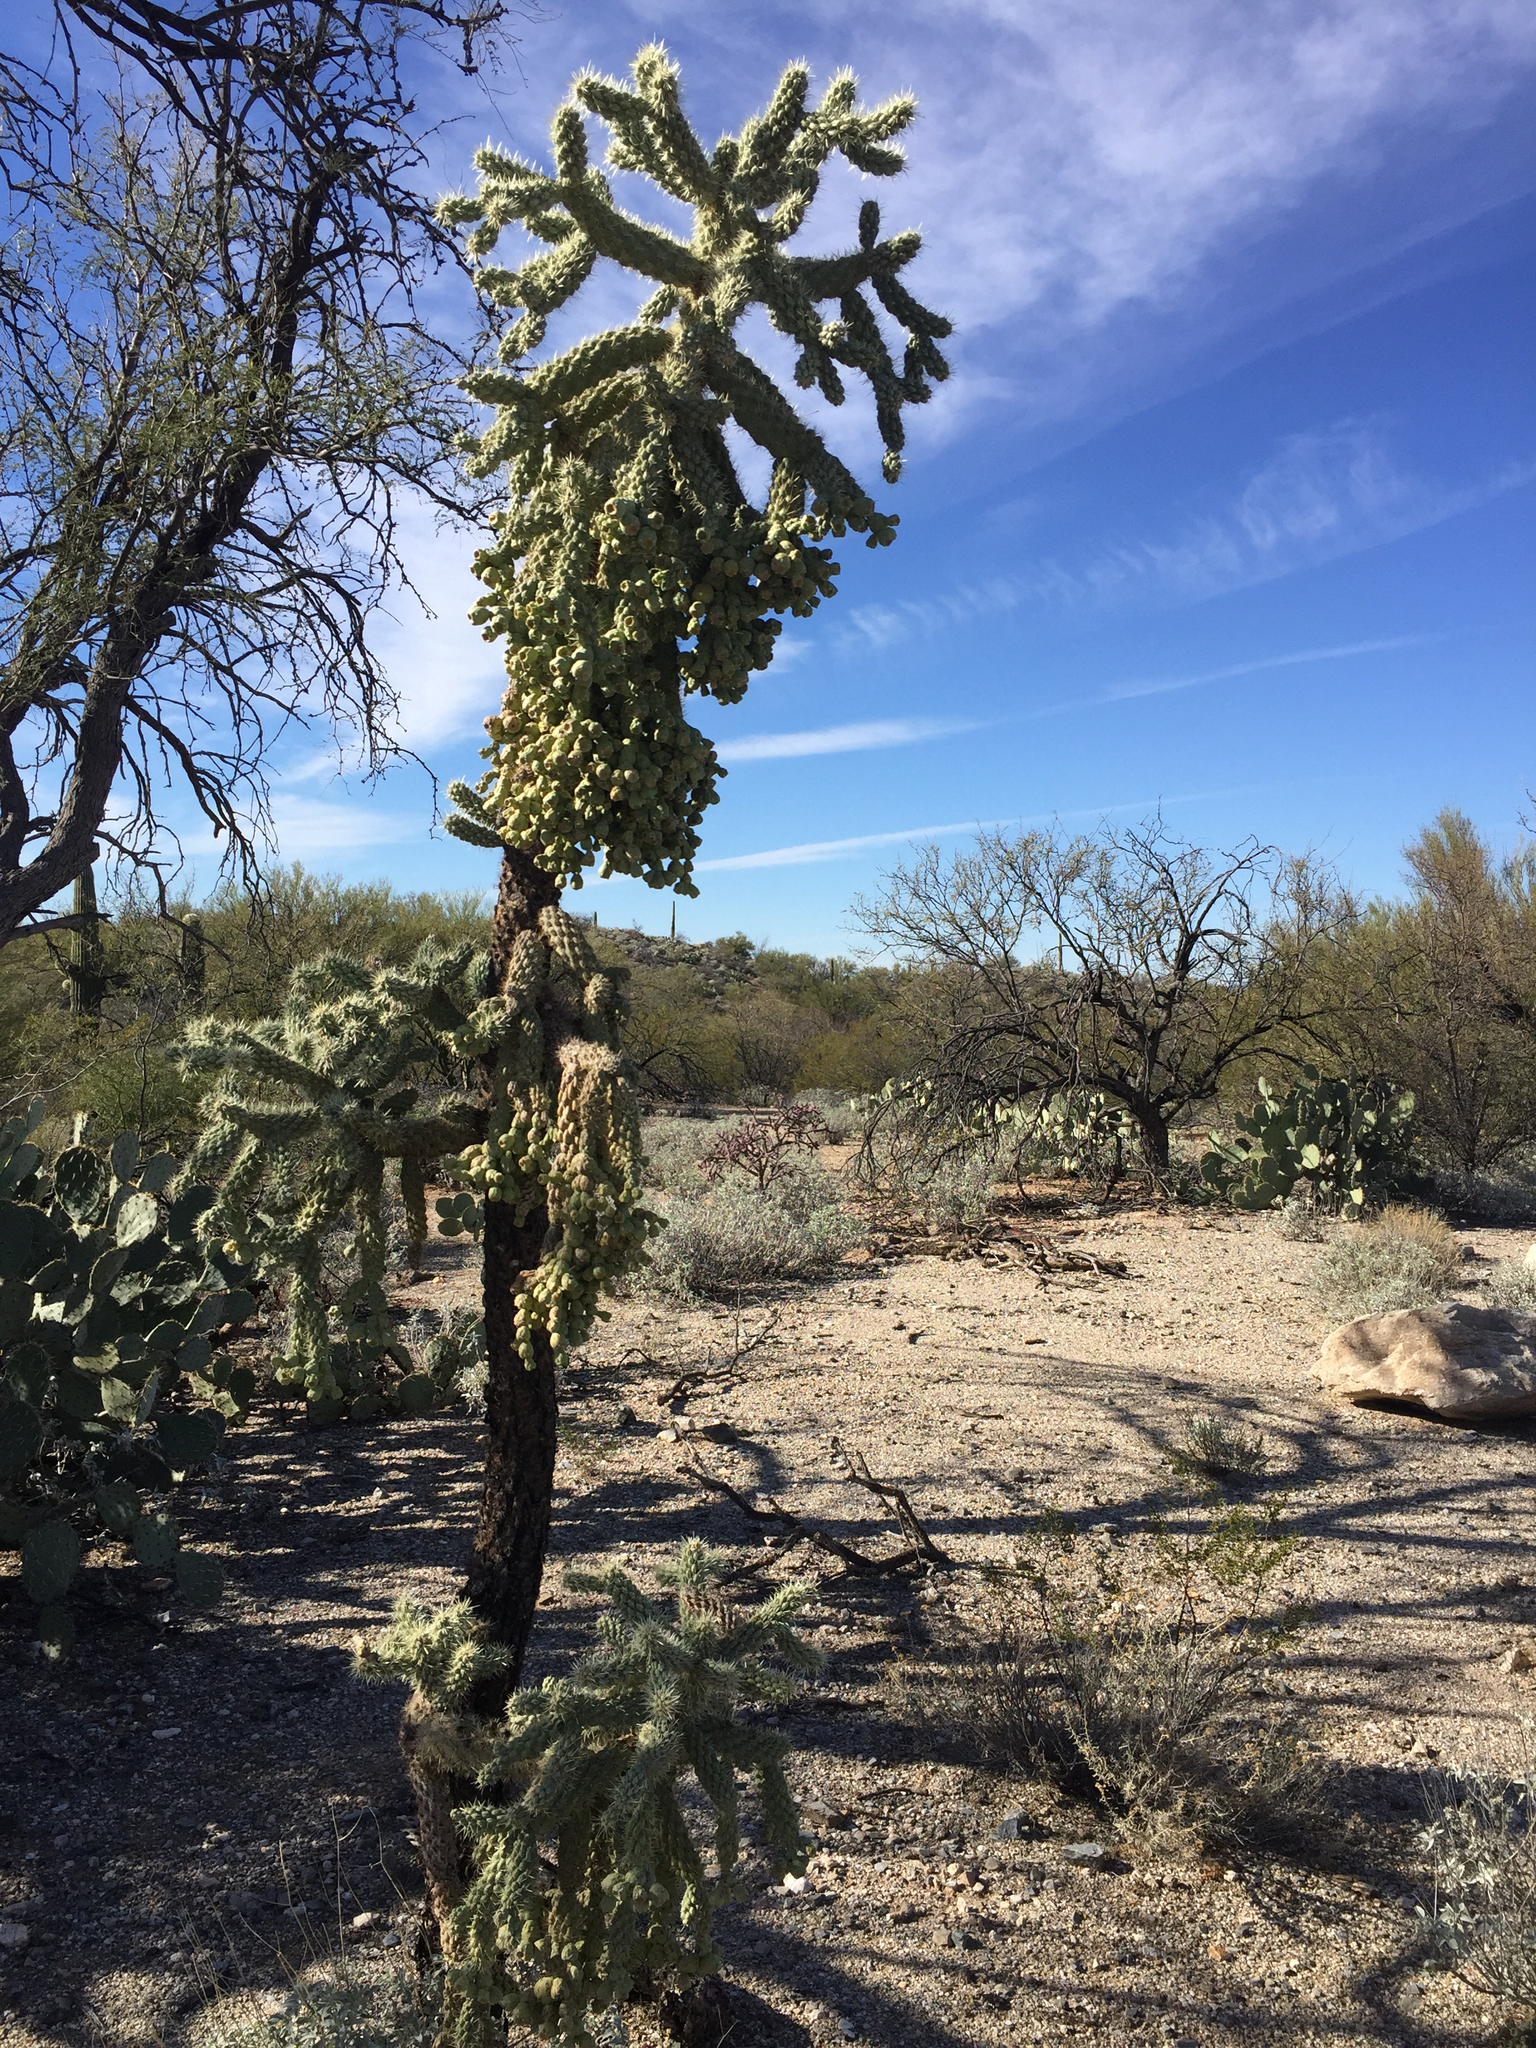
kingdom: Plantae
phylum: Tracheophyta
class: Magnoliopsida
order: Caryophyllales
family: Cactaceae
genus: Cylindropuntia
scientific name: Cylindropuntia fulgida
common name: Jumping cholla
